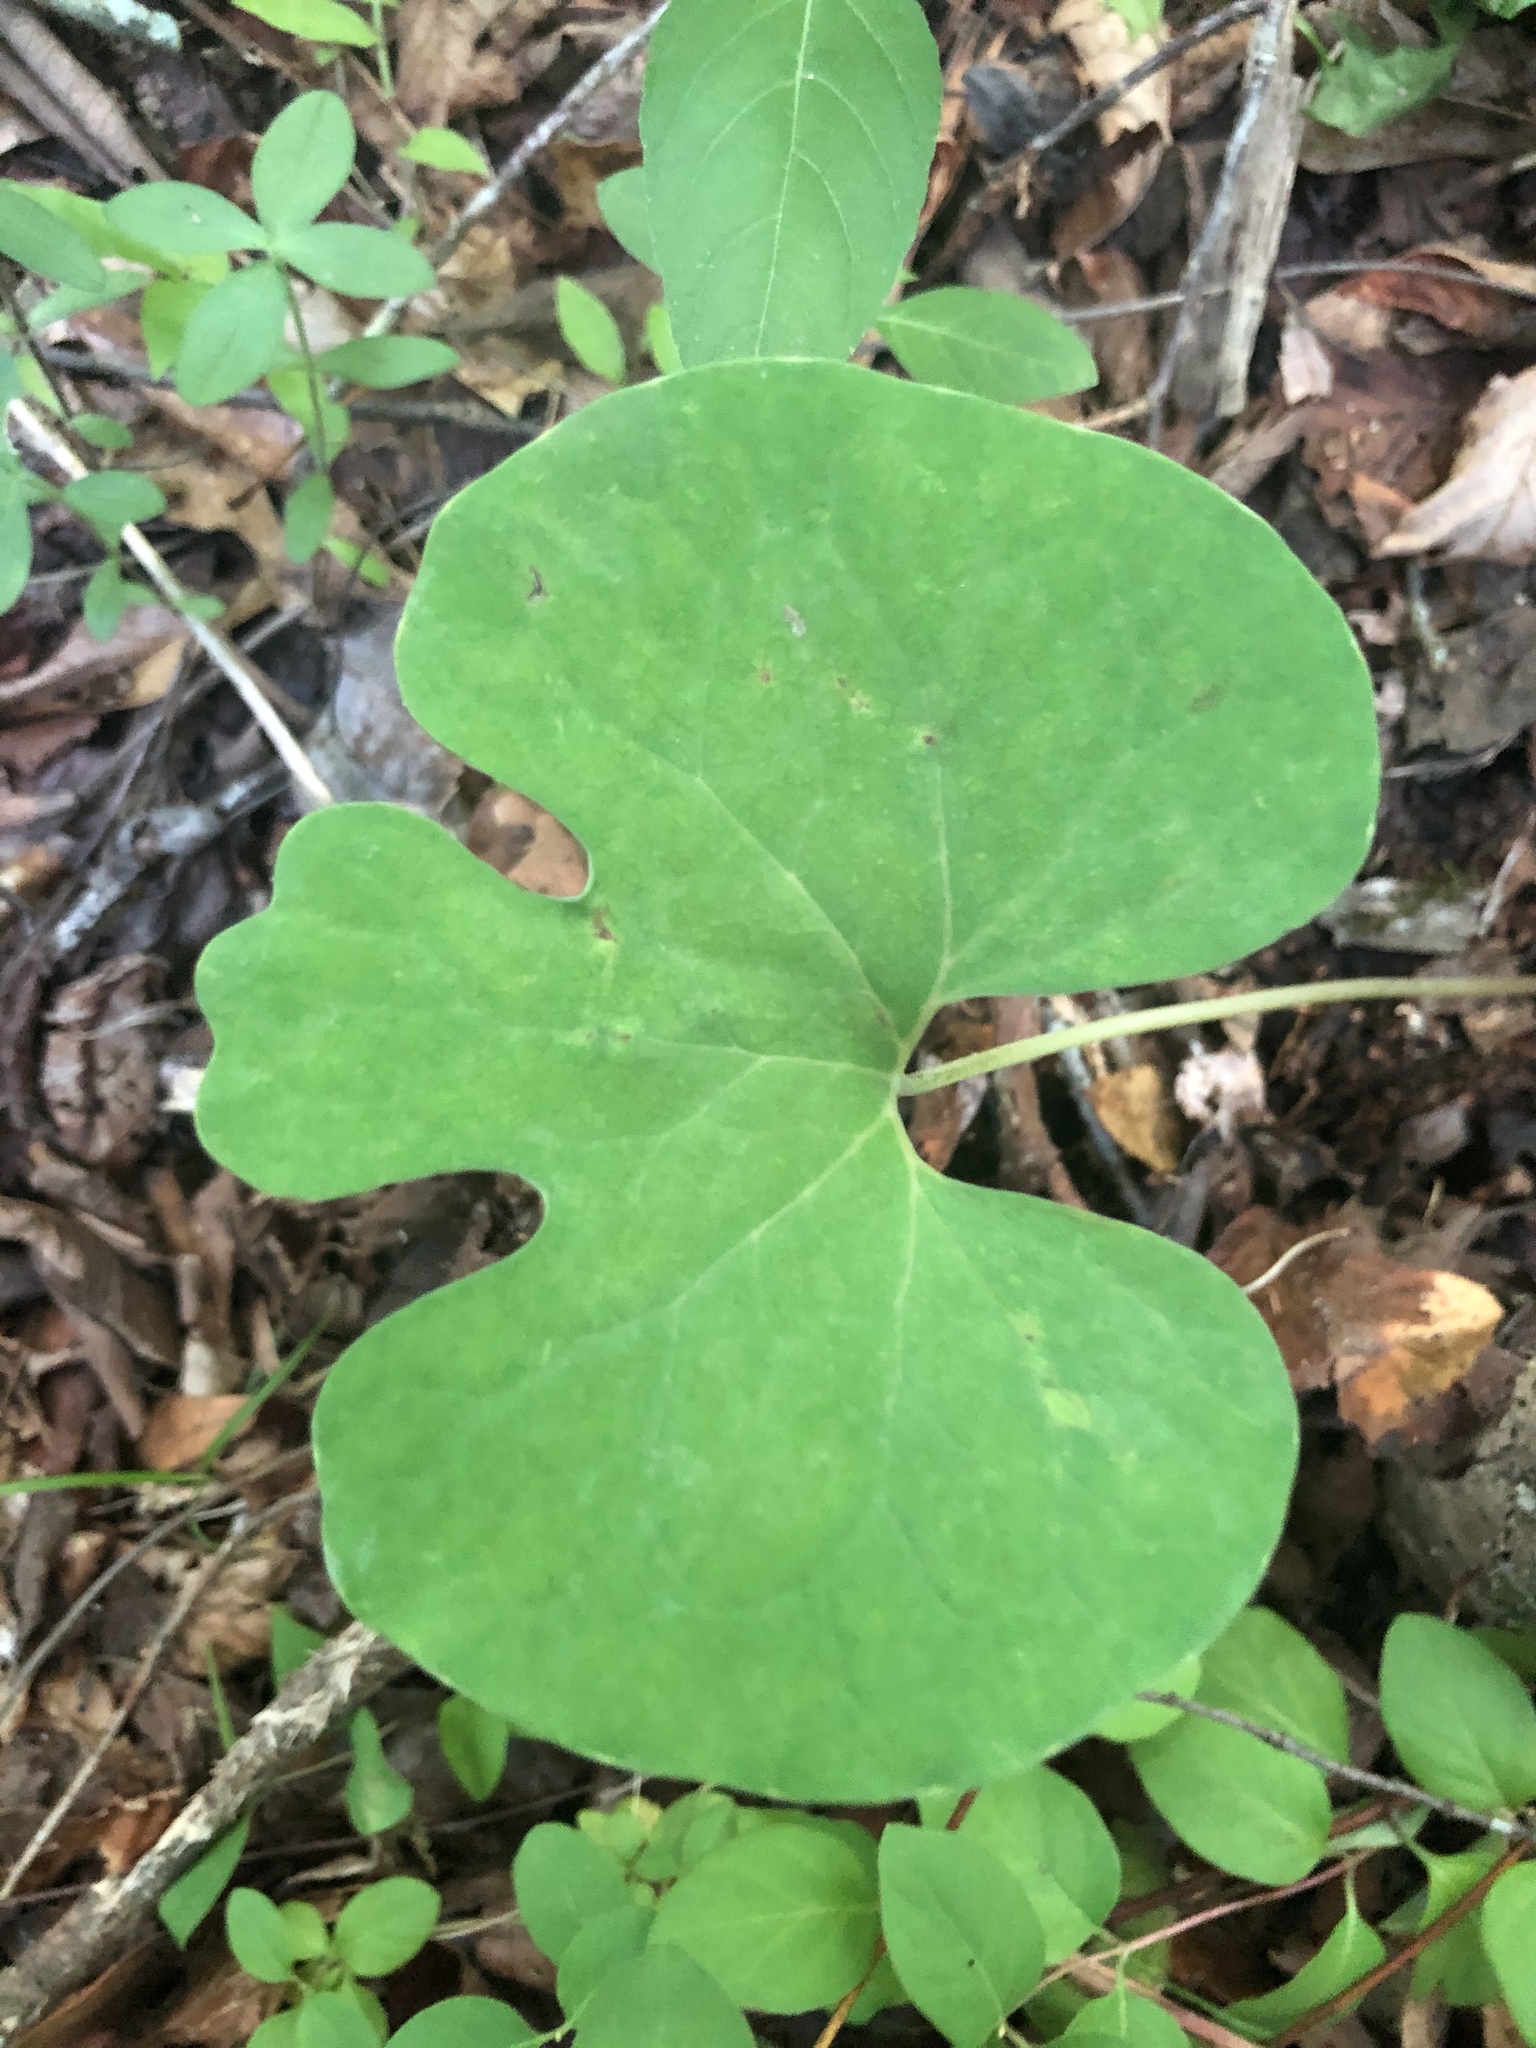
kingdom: Plantae
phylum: Tracheophyta
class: Magnoliopsida
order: Ranunculales
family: Papaveraceae
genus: Sanguinaria
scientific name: Sanguinaria canadensis
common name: Bloodroot
